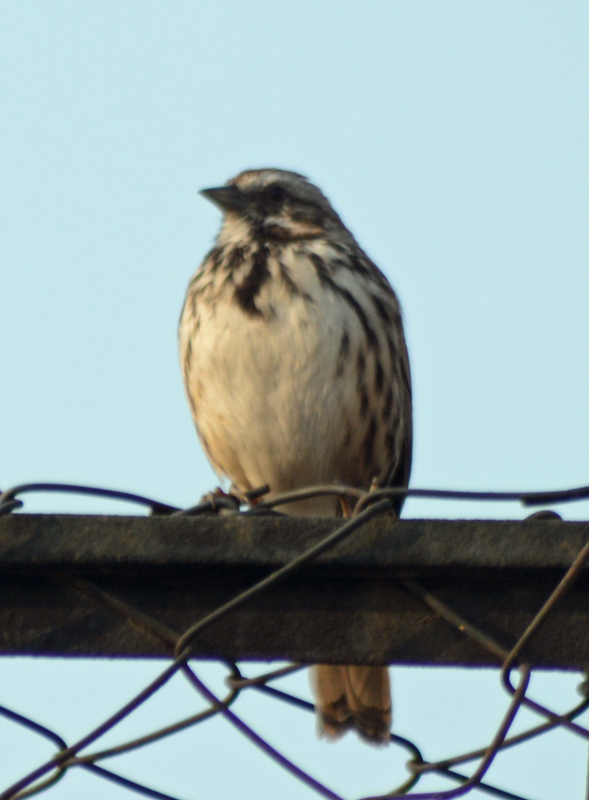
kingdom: Animalia
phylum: Chordata
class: Aves
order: Passeriformes
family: Passerellidae
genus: Melospiza
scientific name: Melospiza melodia
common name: Song sparrow
